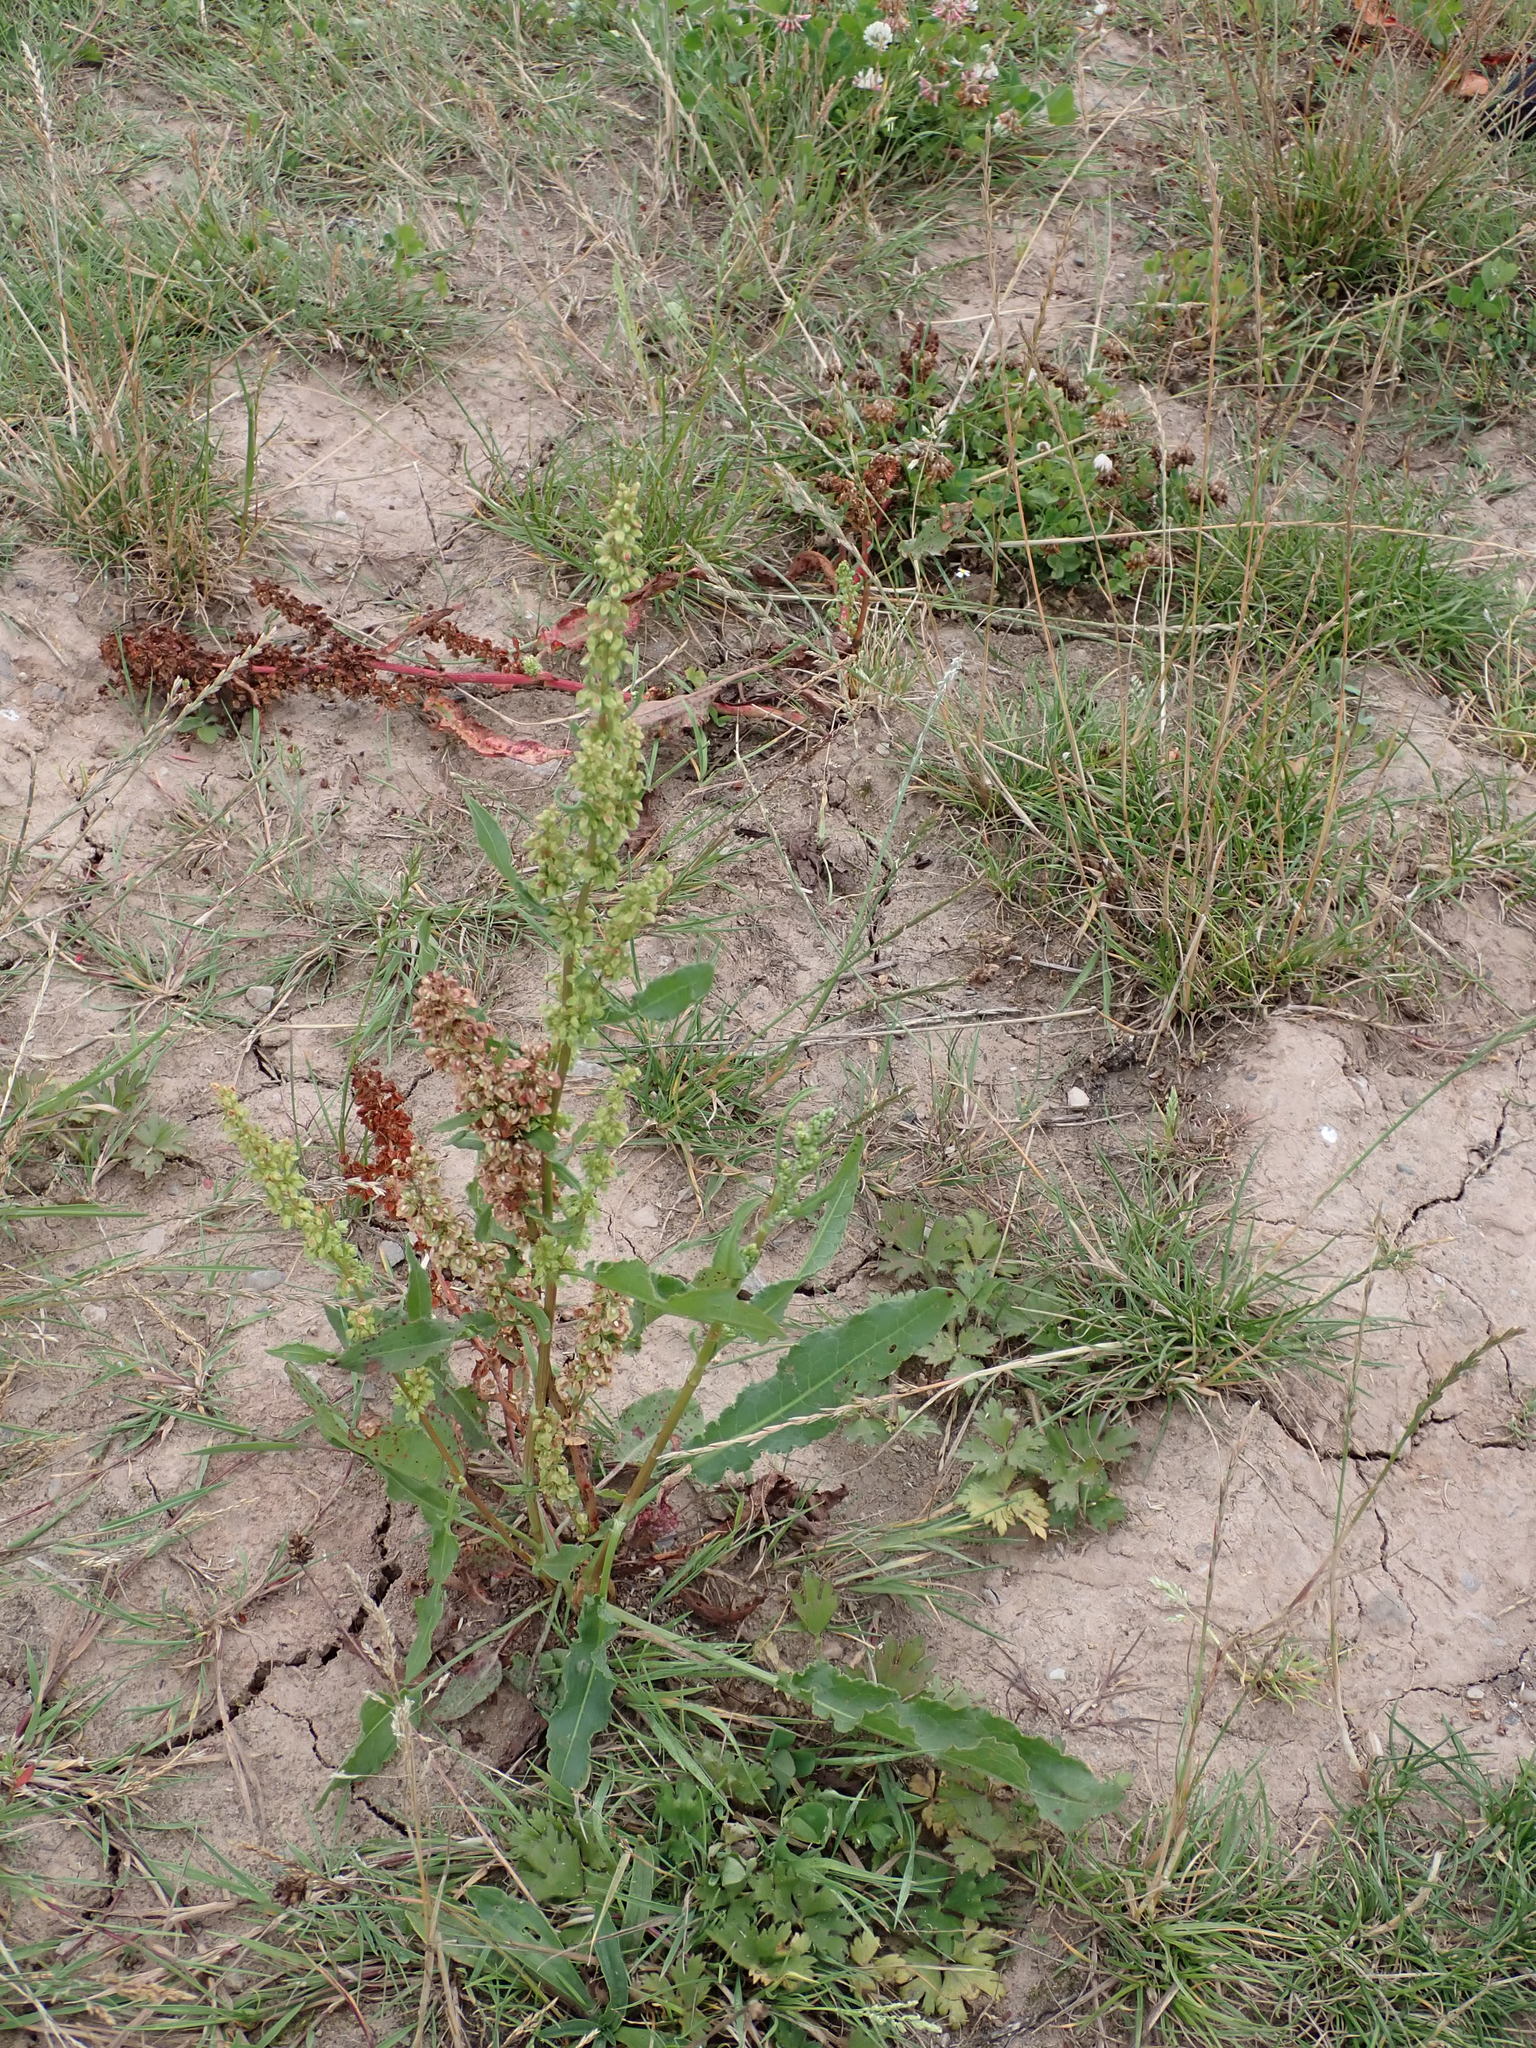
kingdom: Plantae
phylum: Tracheophyta
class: Magnoliopsida
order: Caryophyllales
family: Polygonaceae
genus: Rumex
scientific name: Rumex crispus
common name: Curled dock
